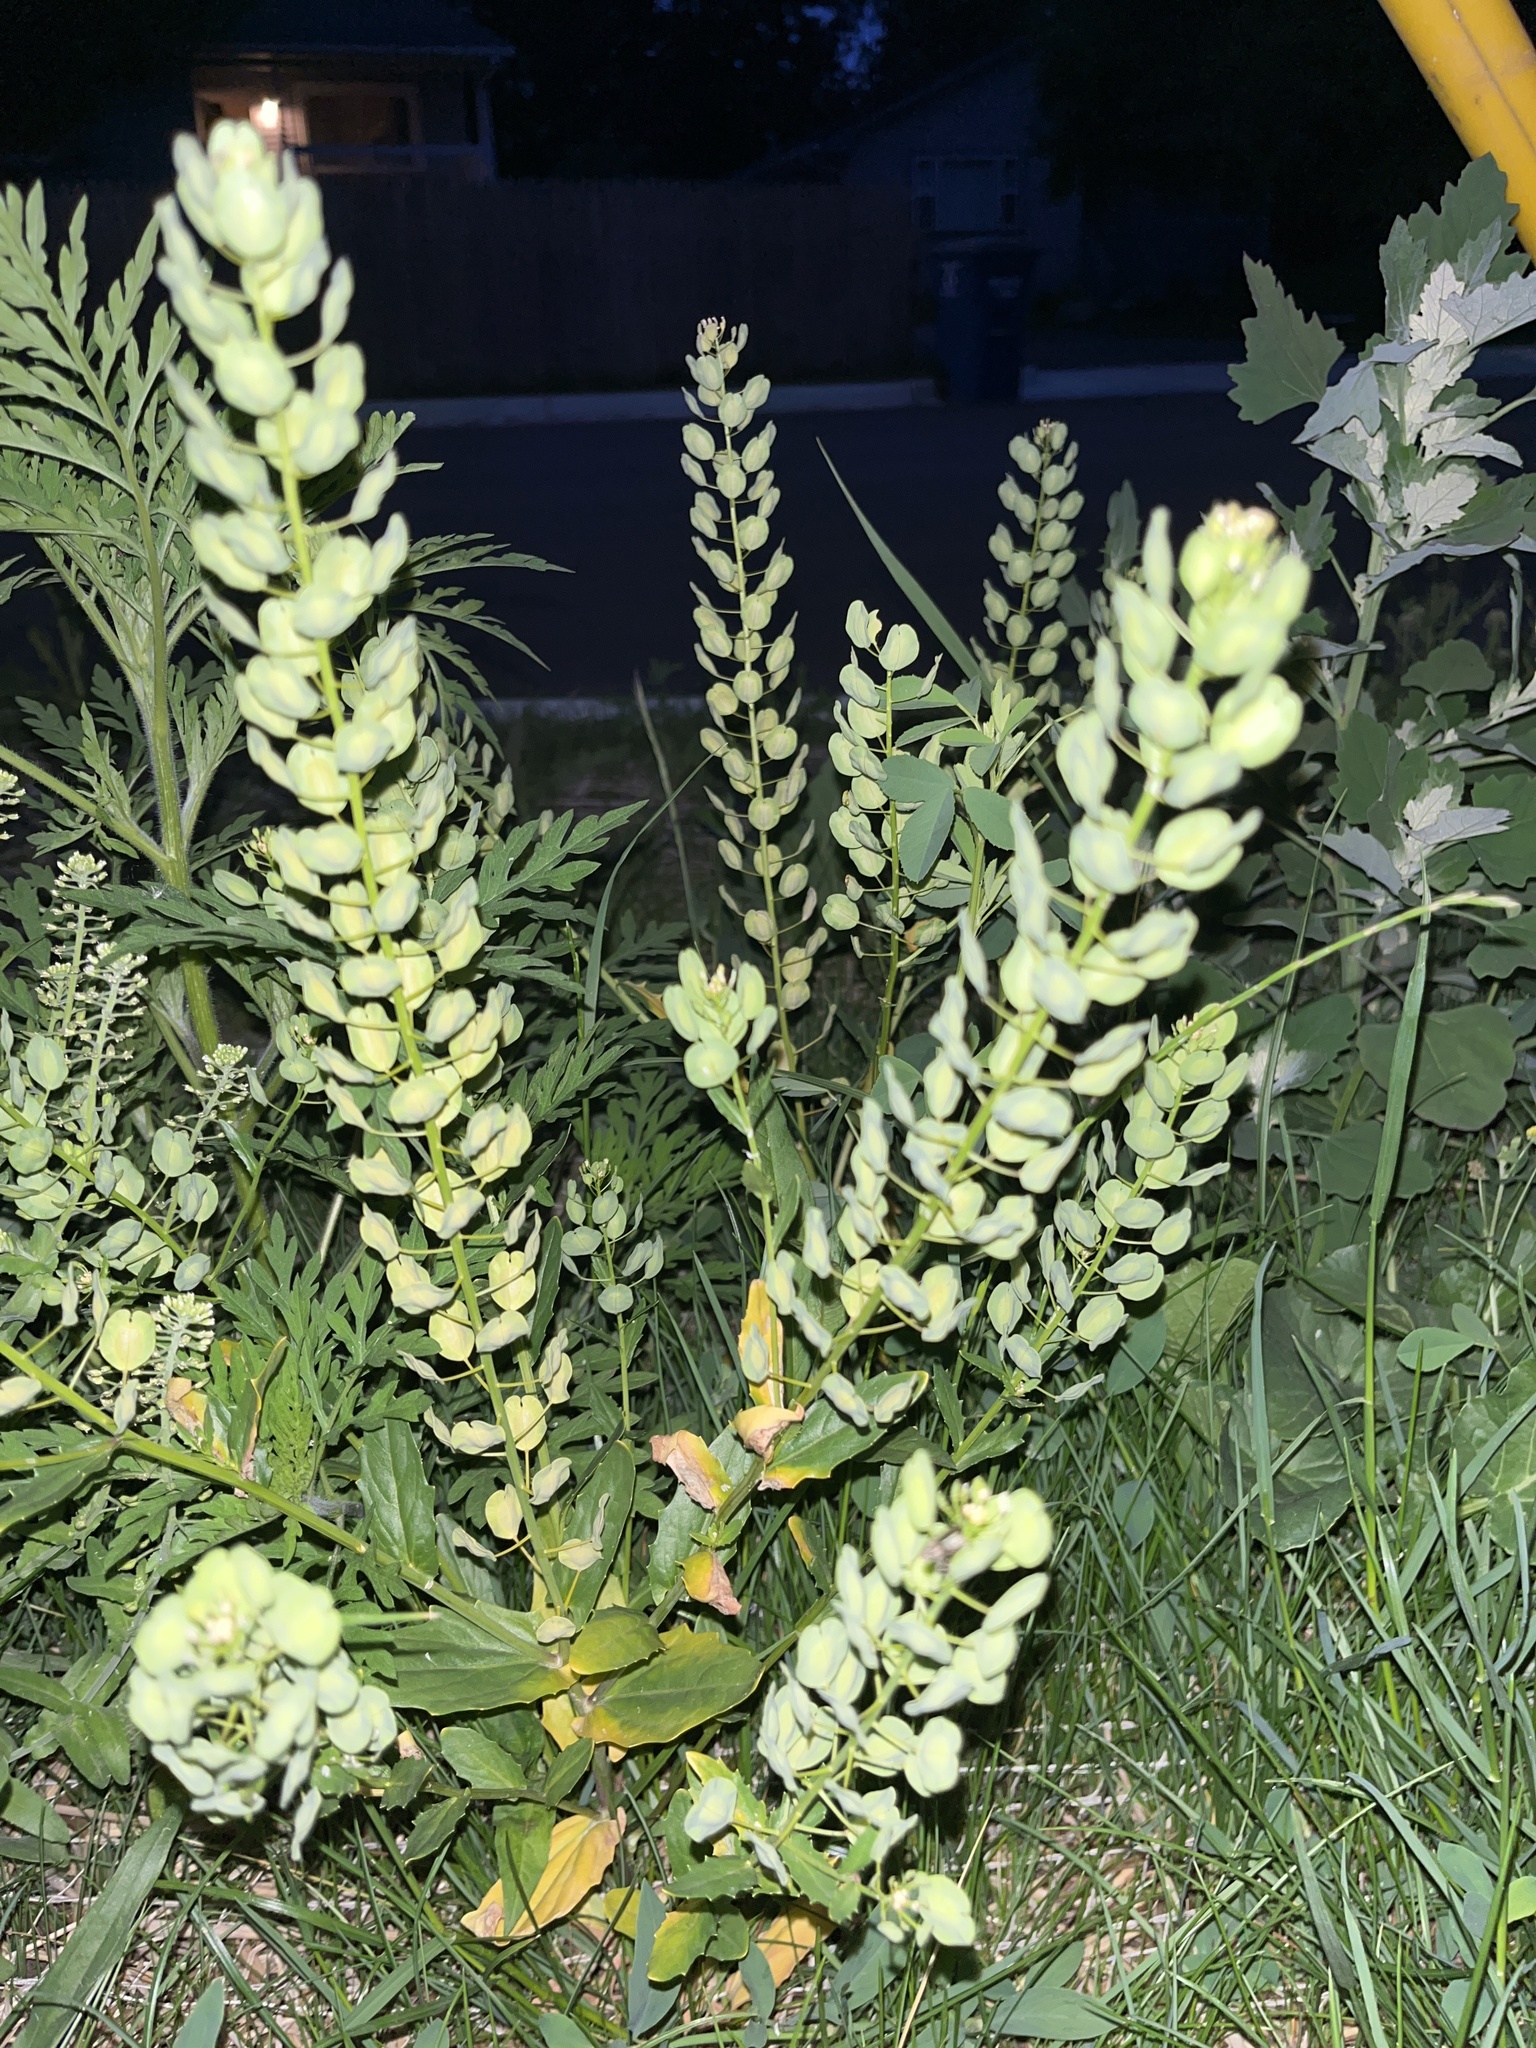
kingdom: Plantae
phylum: Tracheophyta
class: Magnoliopsida
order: Brassicales
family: Brassicaceae
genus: Thlaspi
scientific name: Thlaspi arvense
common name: Field pennycress
